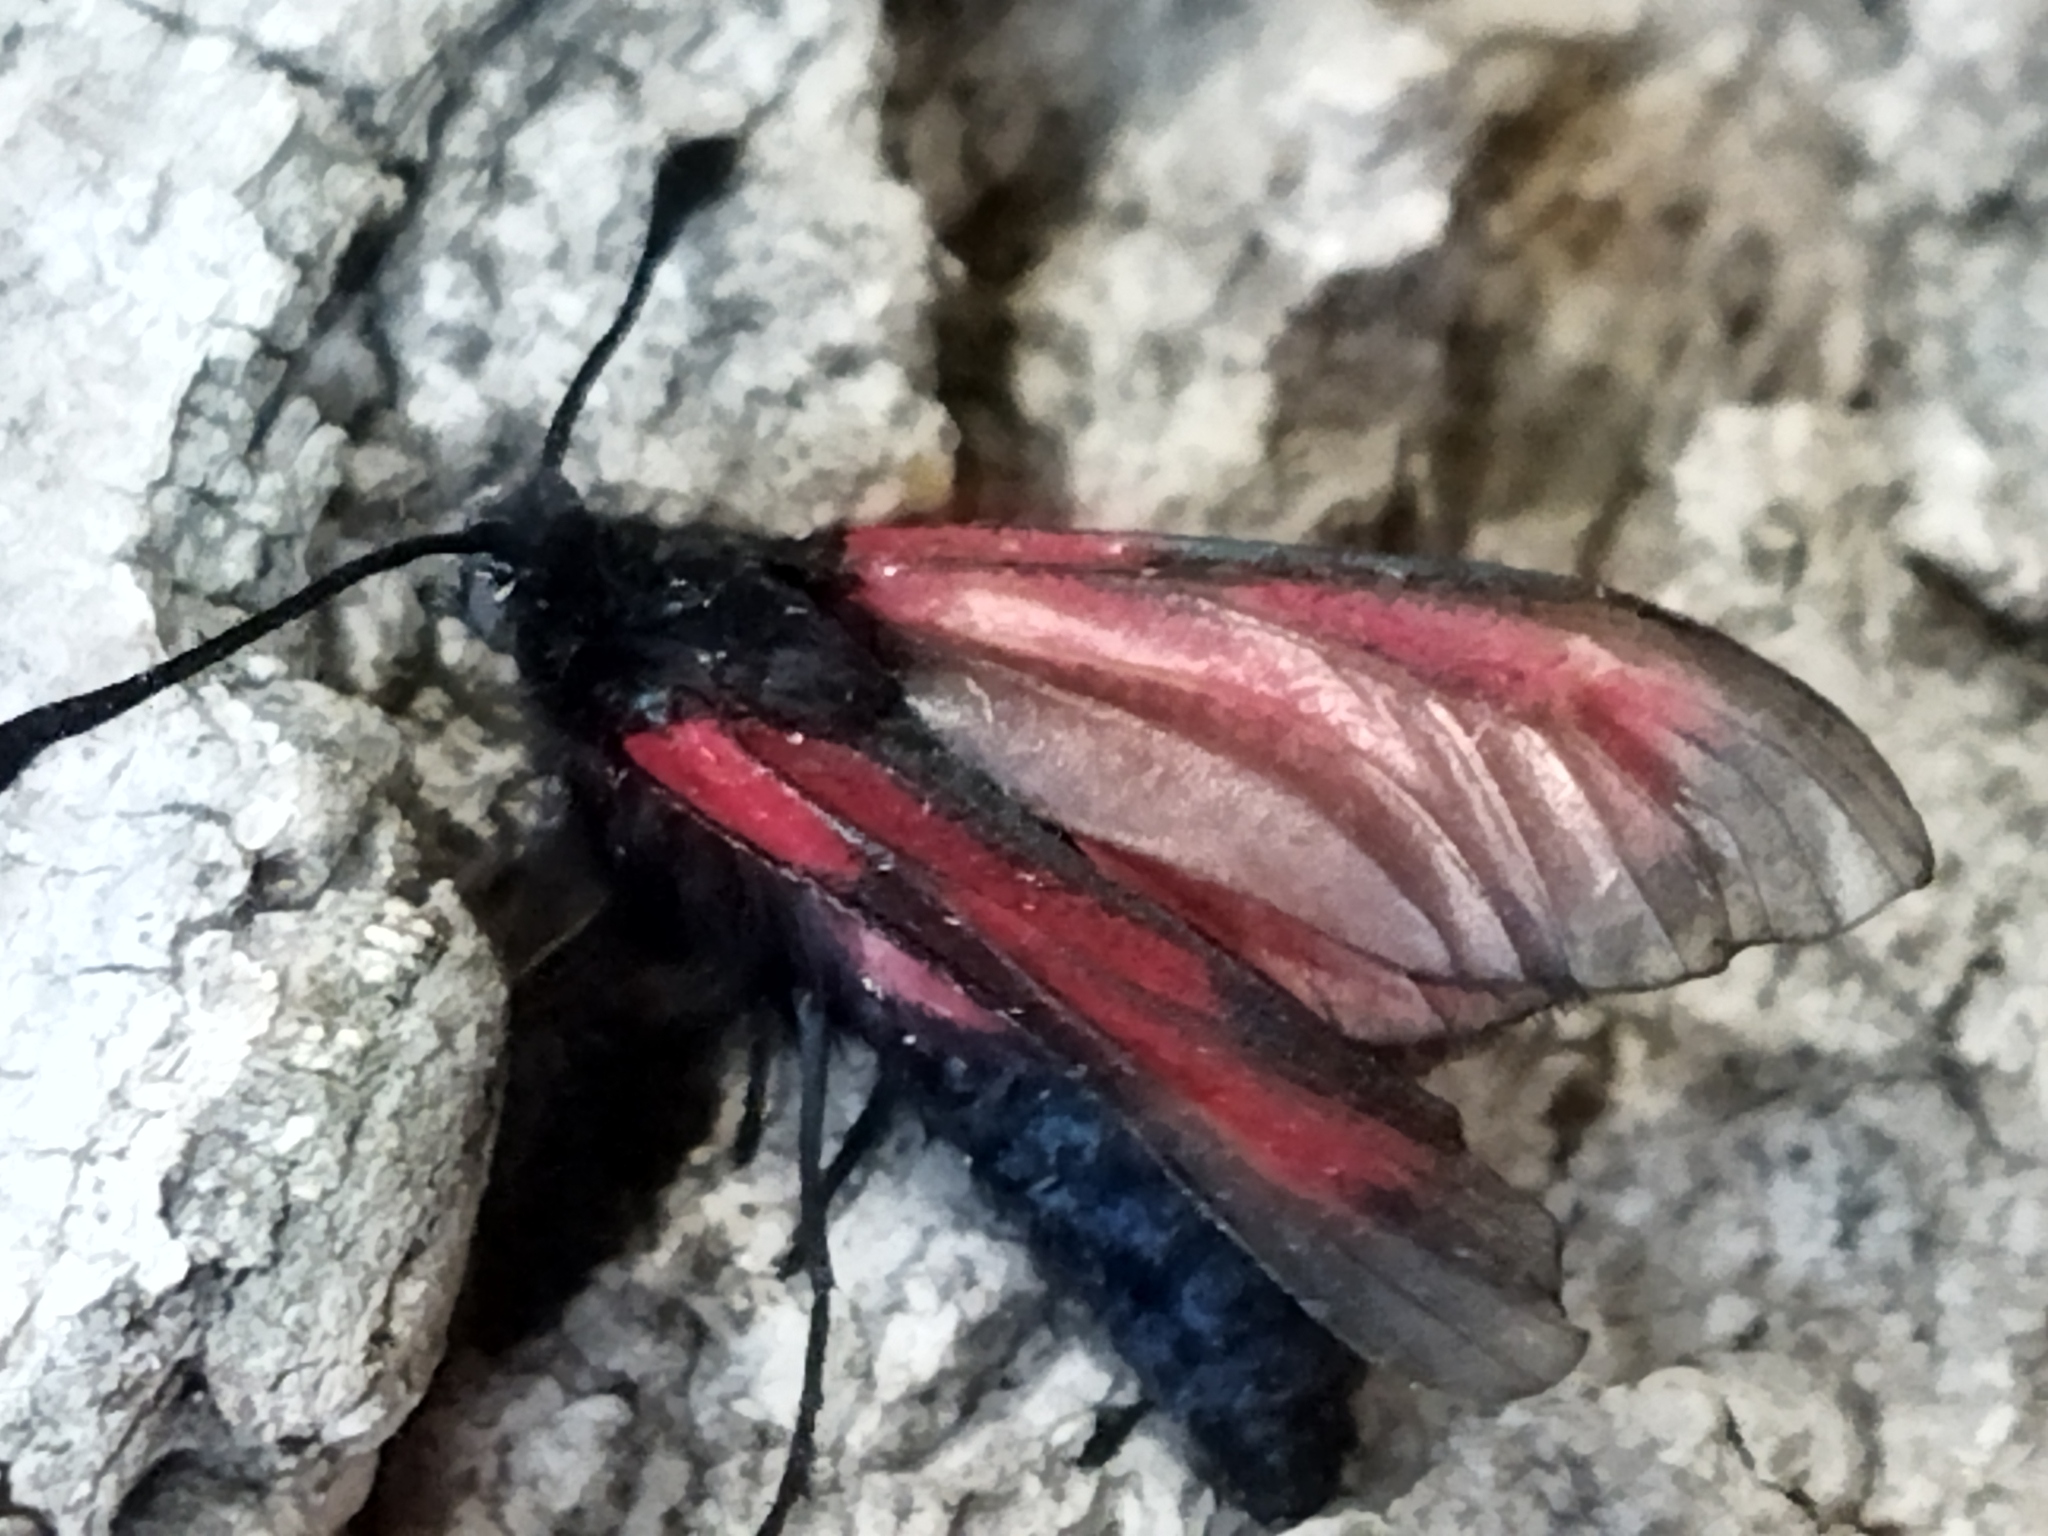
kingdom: Animalia
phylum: Arthropoda
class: Insecta
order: Lepidoptera
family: Zygaenidae
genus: Zygaena
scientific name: Zygaena
